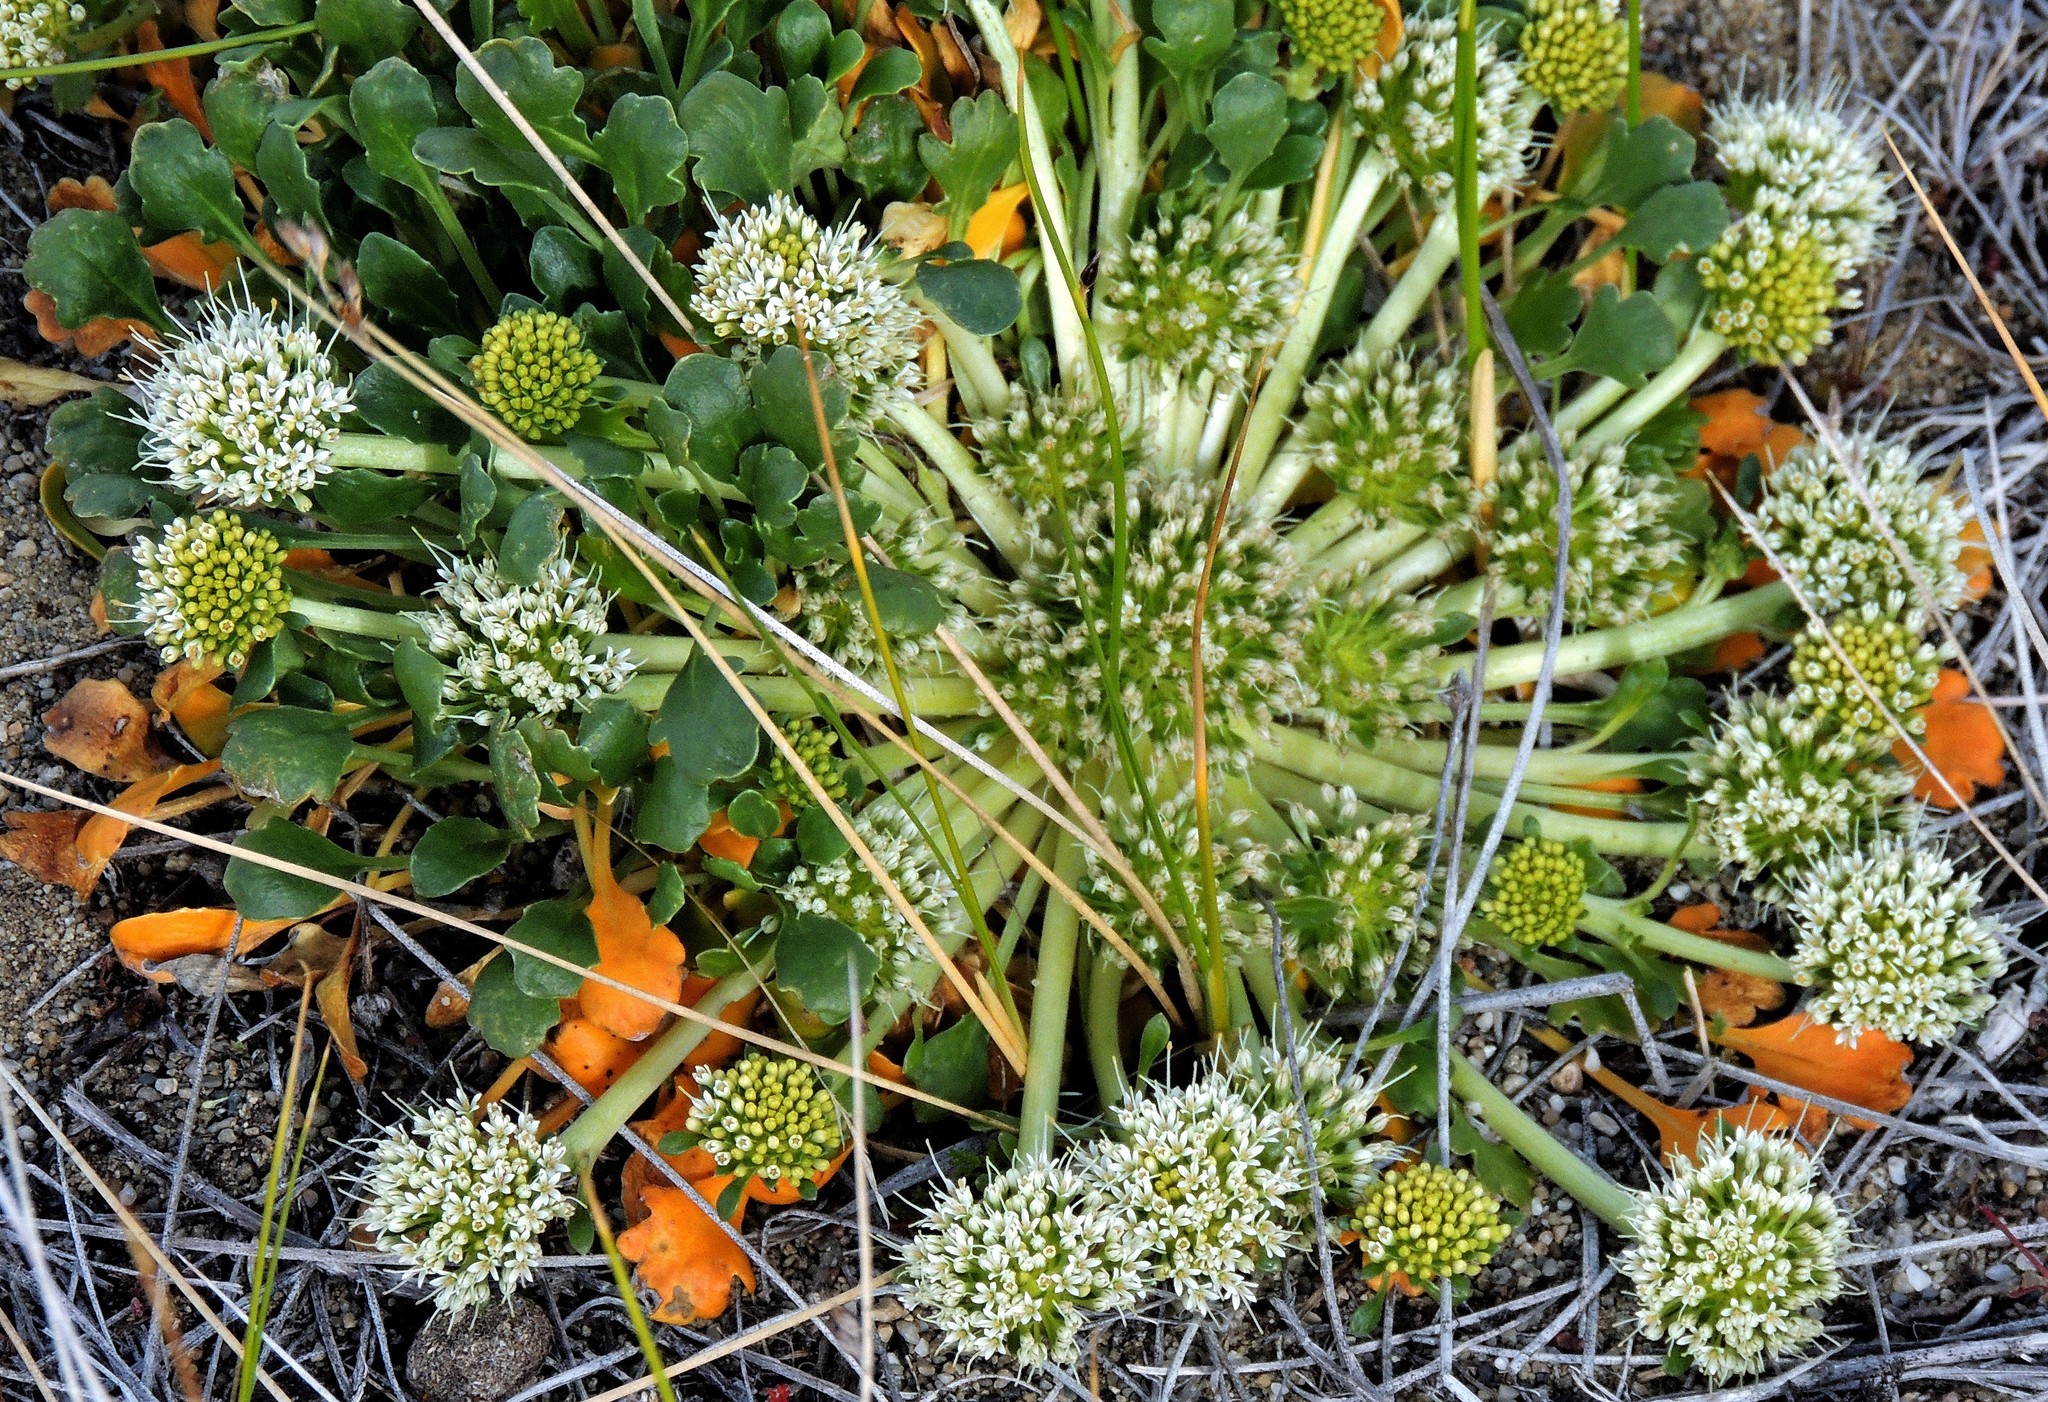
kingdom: Plantae
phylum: Tracheophyta
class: Magnoliopsida
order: Asterales
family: Calyceraceae
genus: Gamocarpha
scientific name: Gamocarpha selliana
